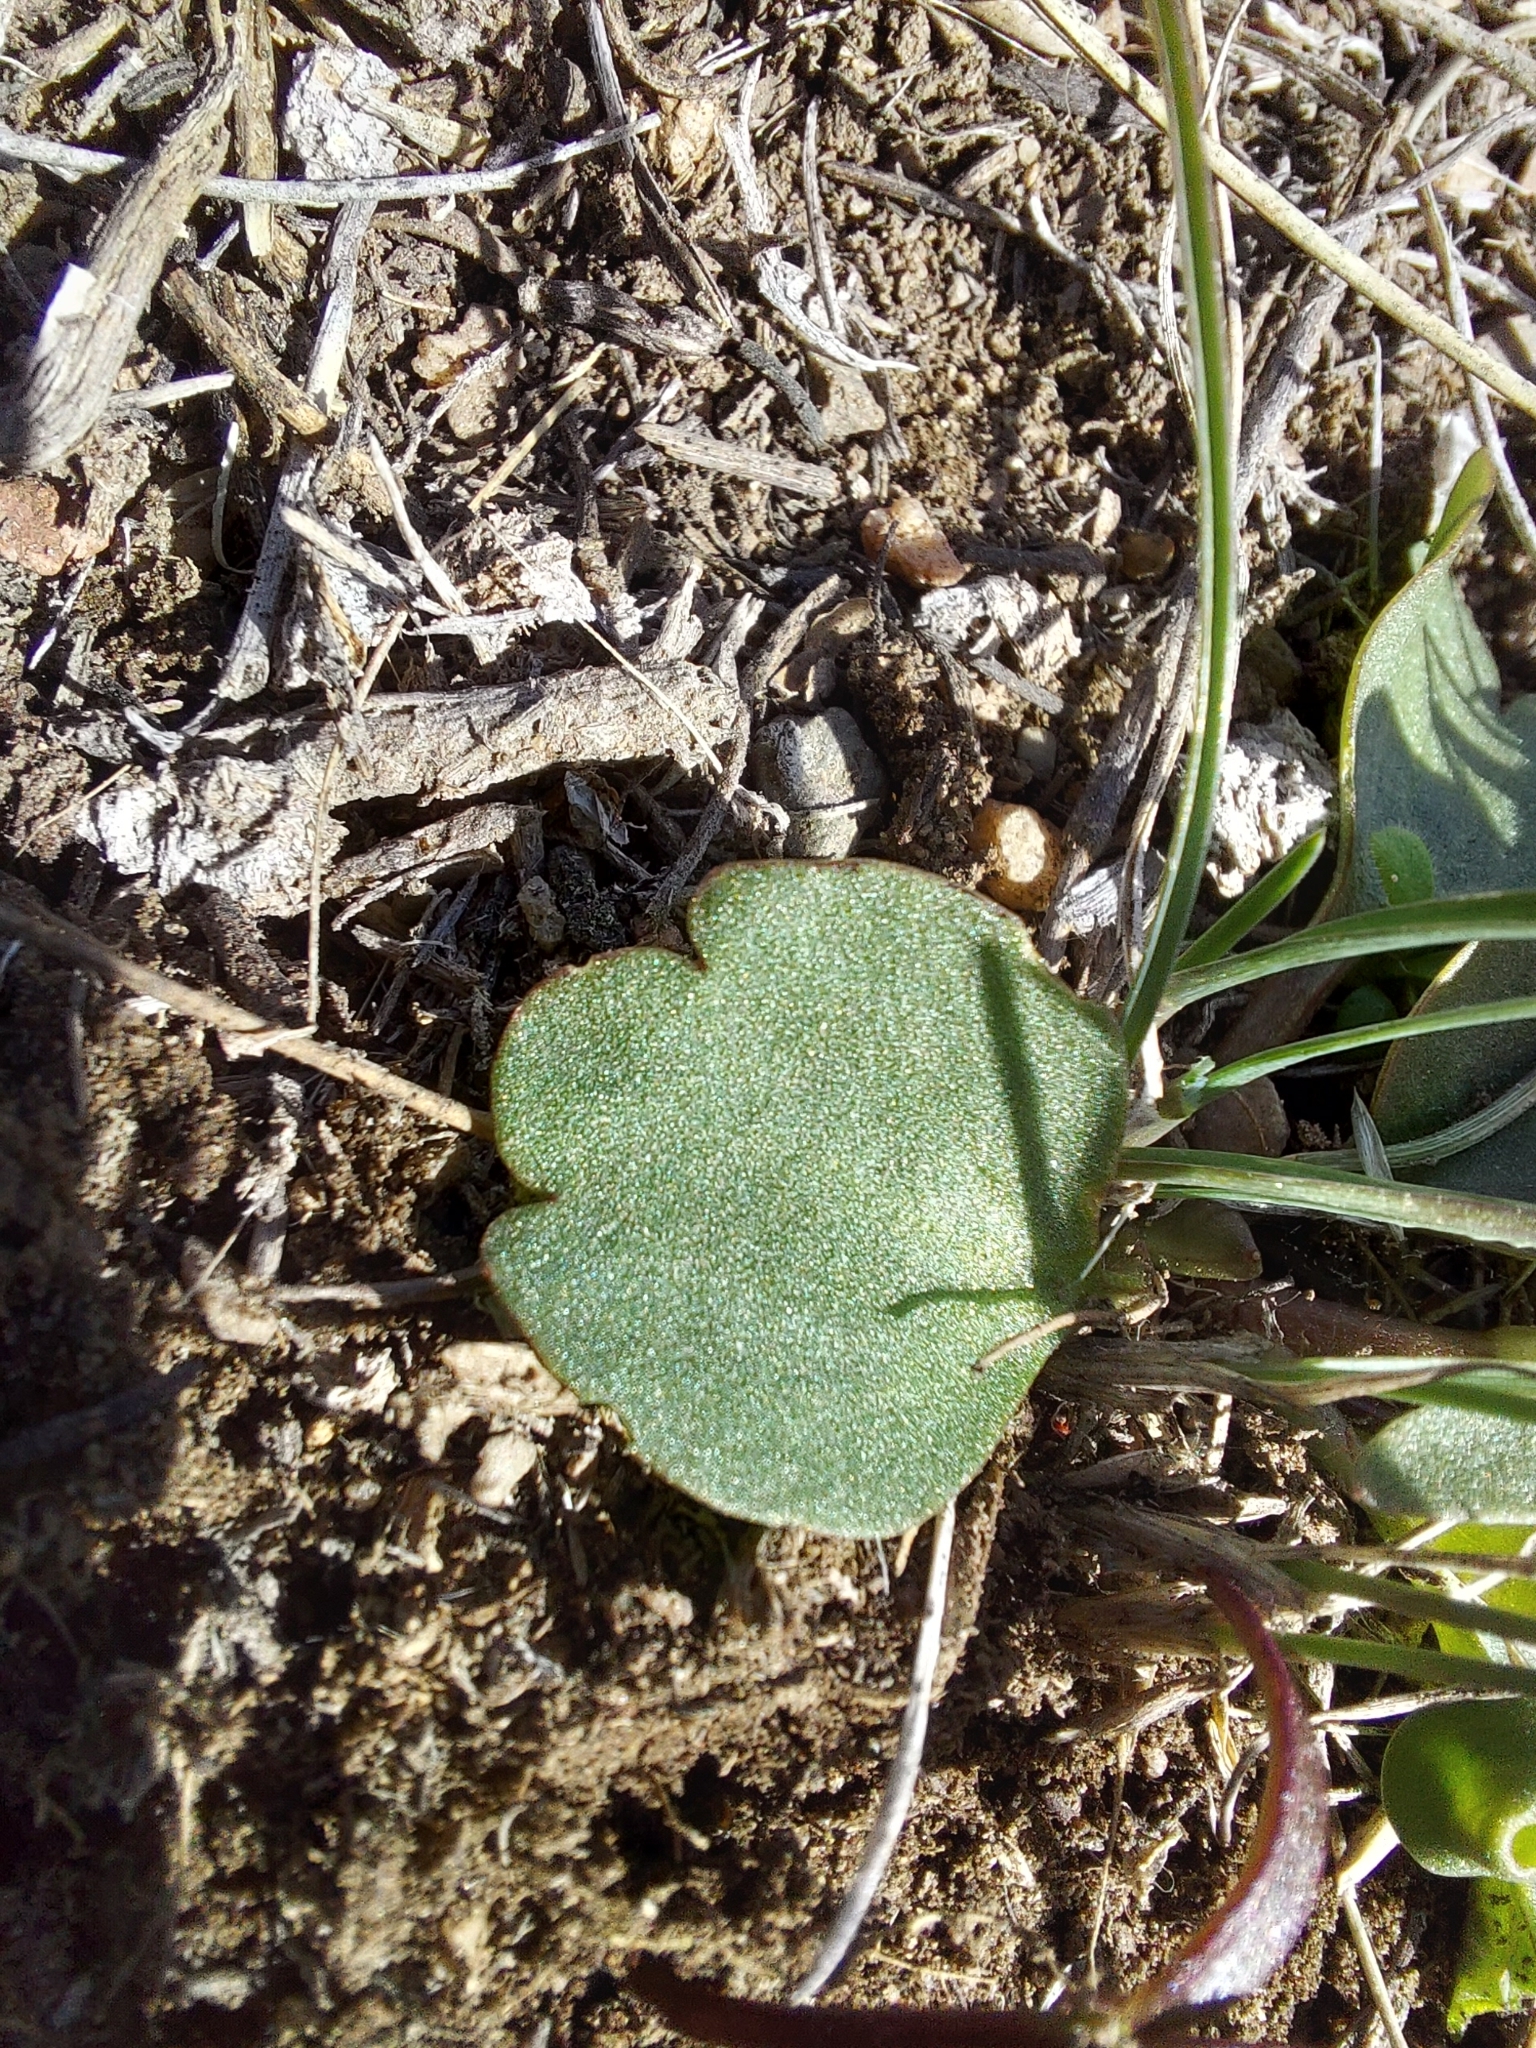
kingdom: Plantae
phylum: Tracheophyta
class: Magnoliopsida
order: Ranunculales
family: Ranunculaceae
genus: Ranunculus
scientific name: Ranunculus glaberrimus
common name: Sagebrush buttercup
